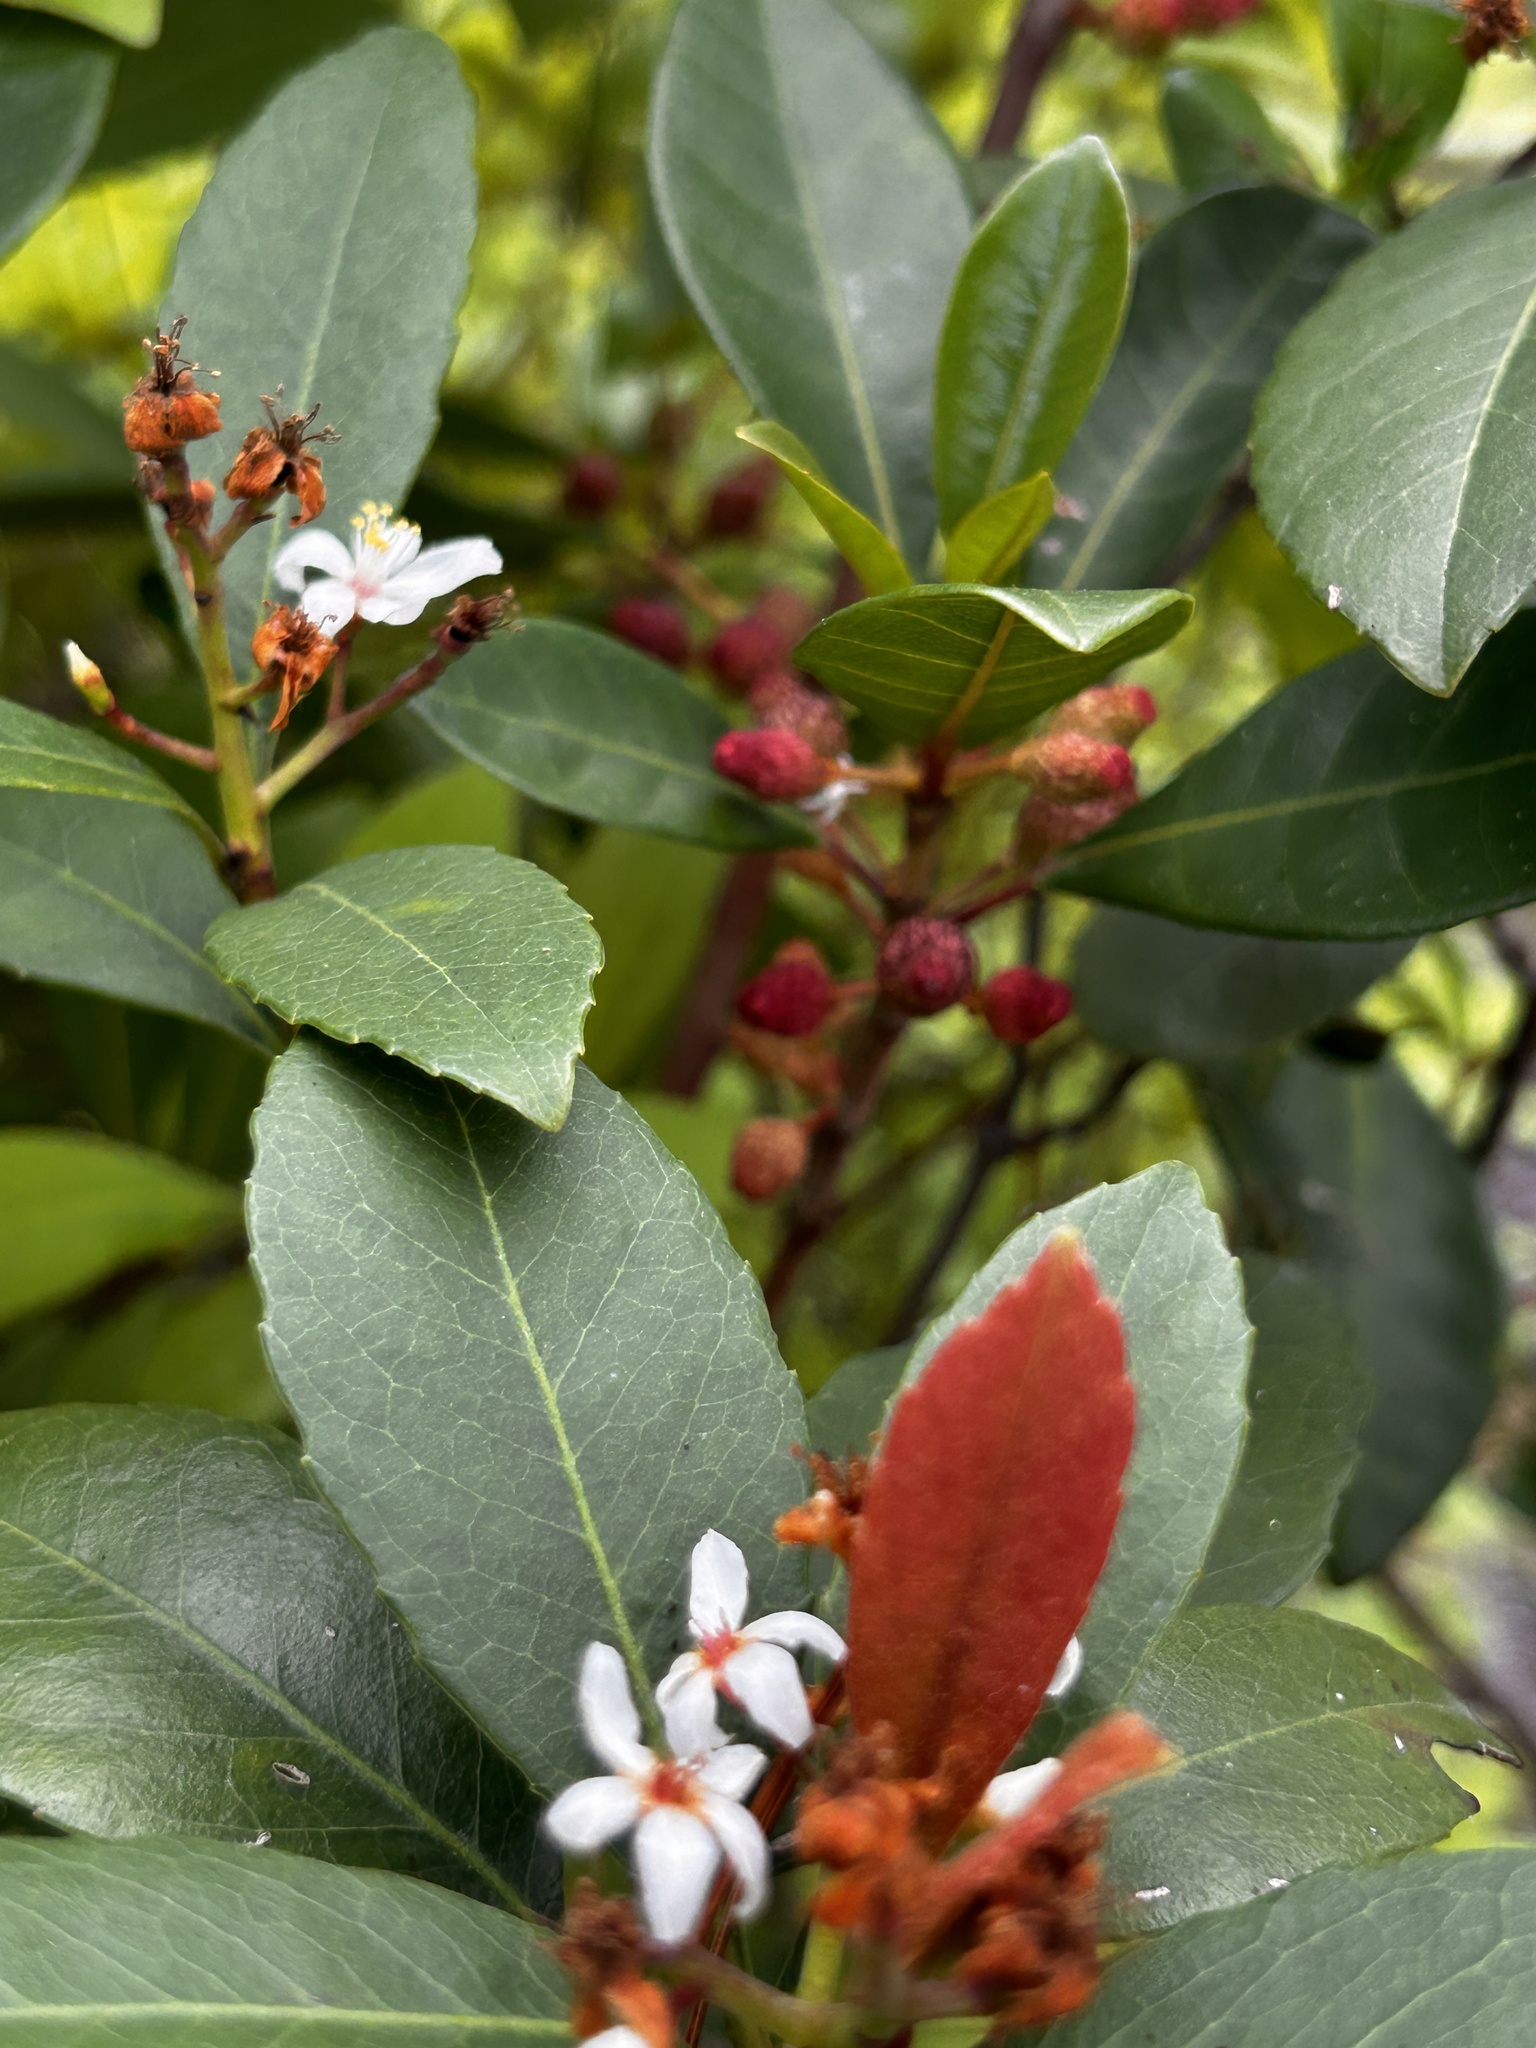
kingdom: Plantae
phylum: Tracheophyta
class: Magnoliopsida
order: Rosales
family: Rosaceae
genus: Rhaphiolepis
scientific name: Rhaphiolepis indica
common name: India-hawthorn
